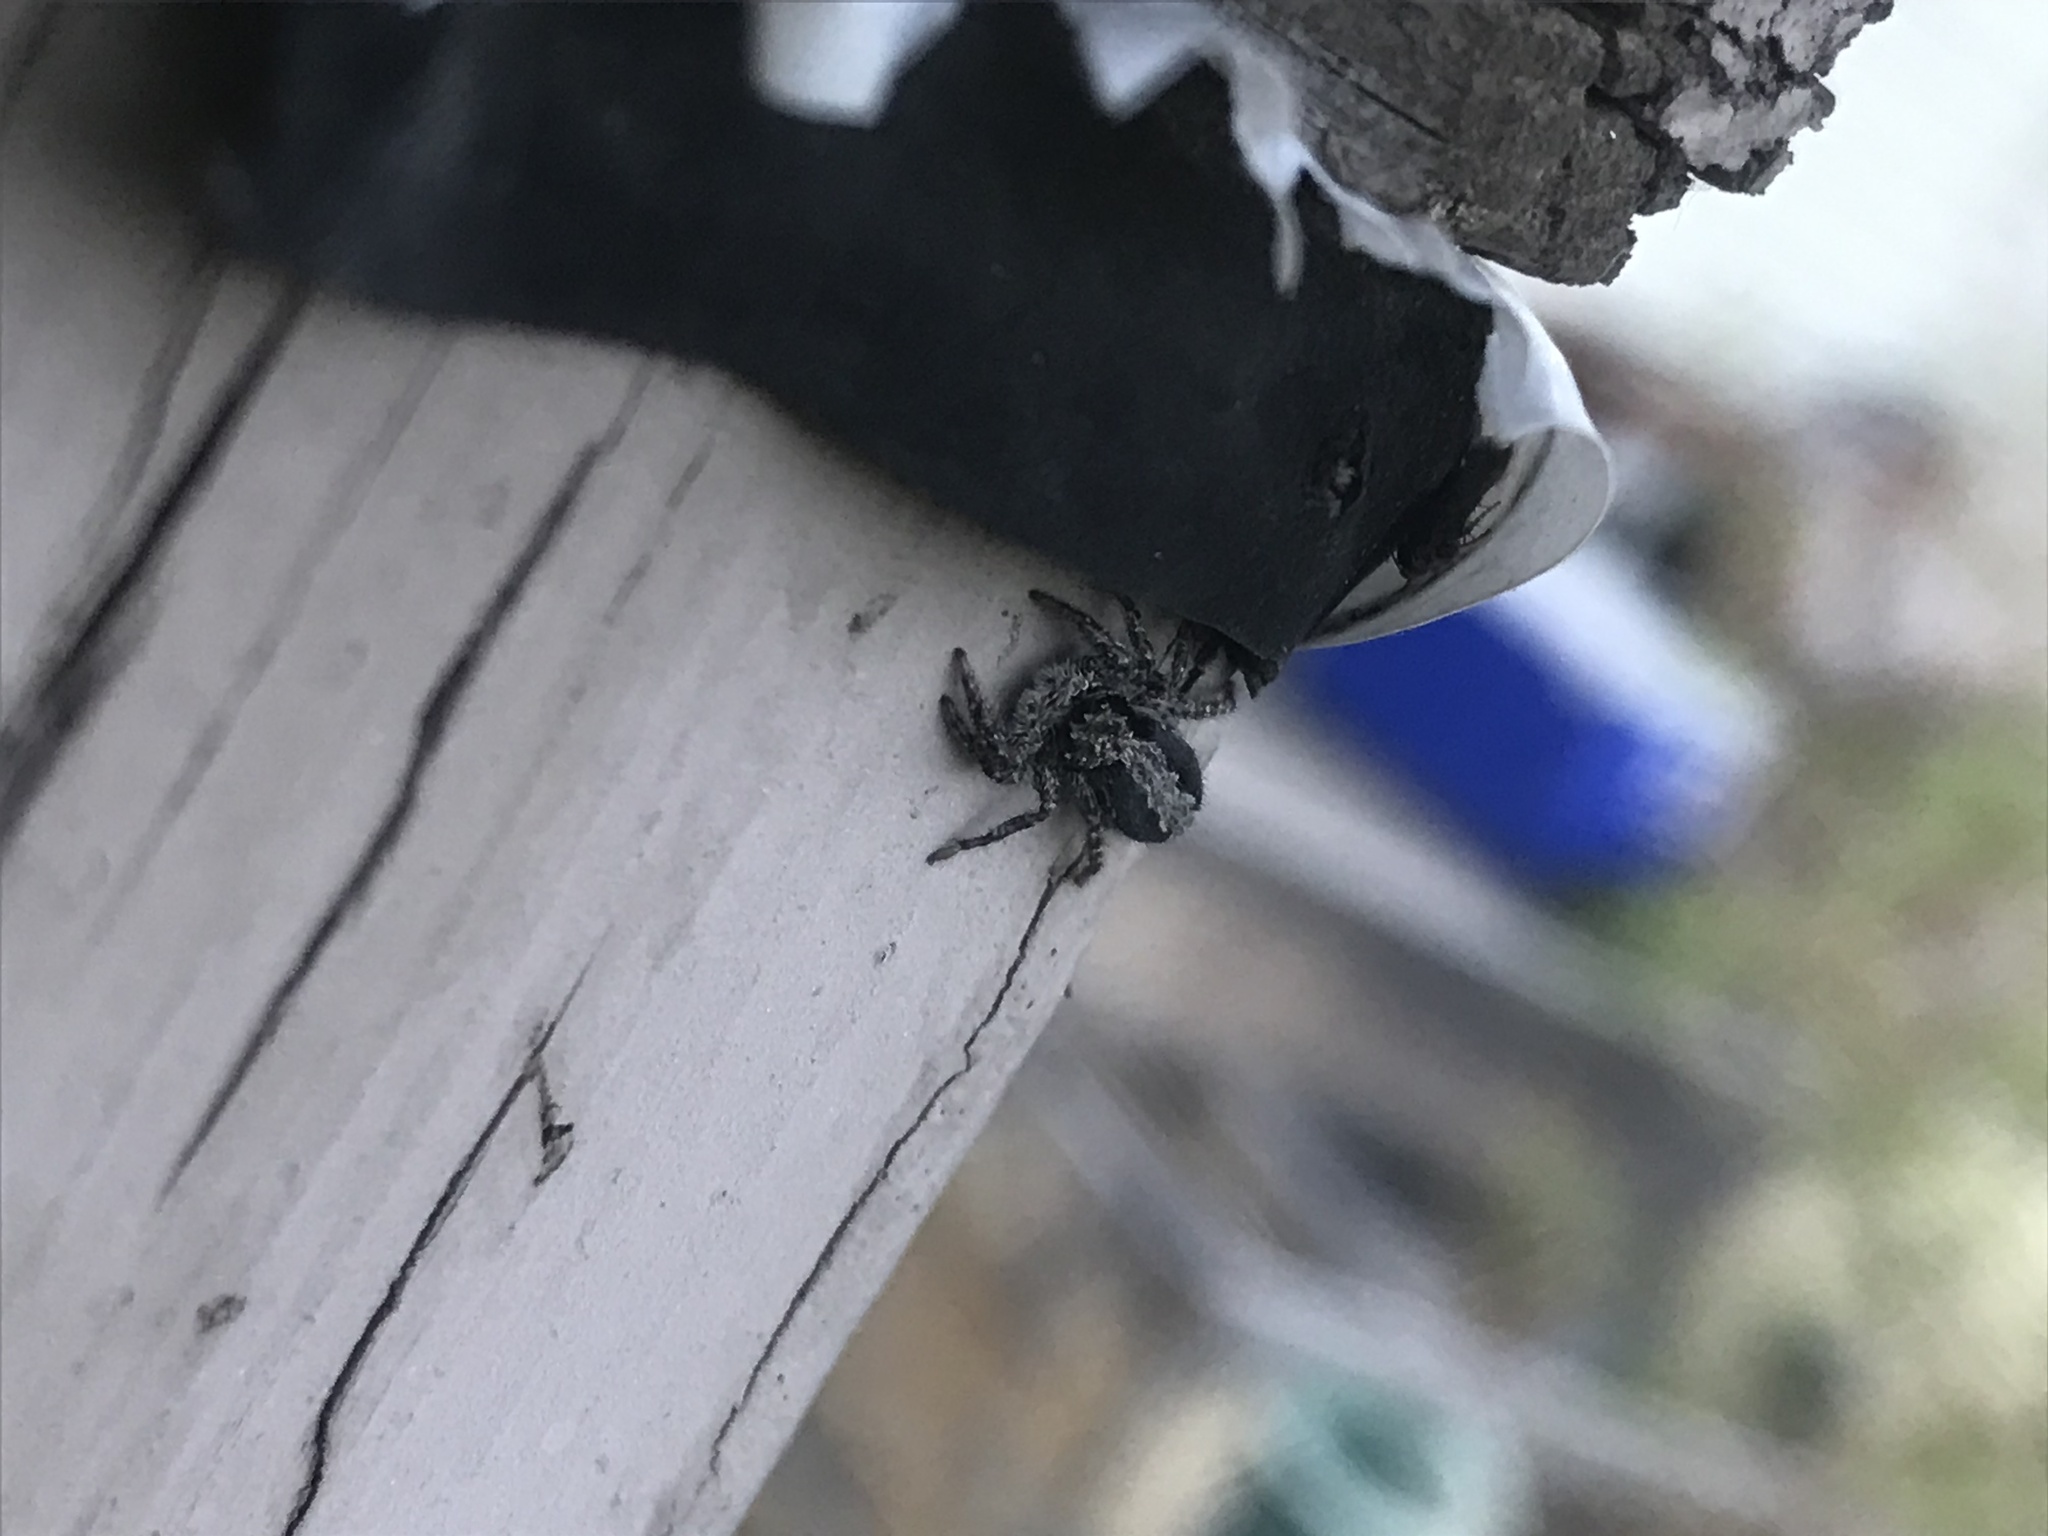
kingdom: Animalia
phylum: Arthropoda
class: Arachnida
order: Araneae
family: Salticidae
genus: Platycryptus
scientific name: Platycryptus californicus
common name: Jumping spiders
